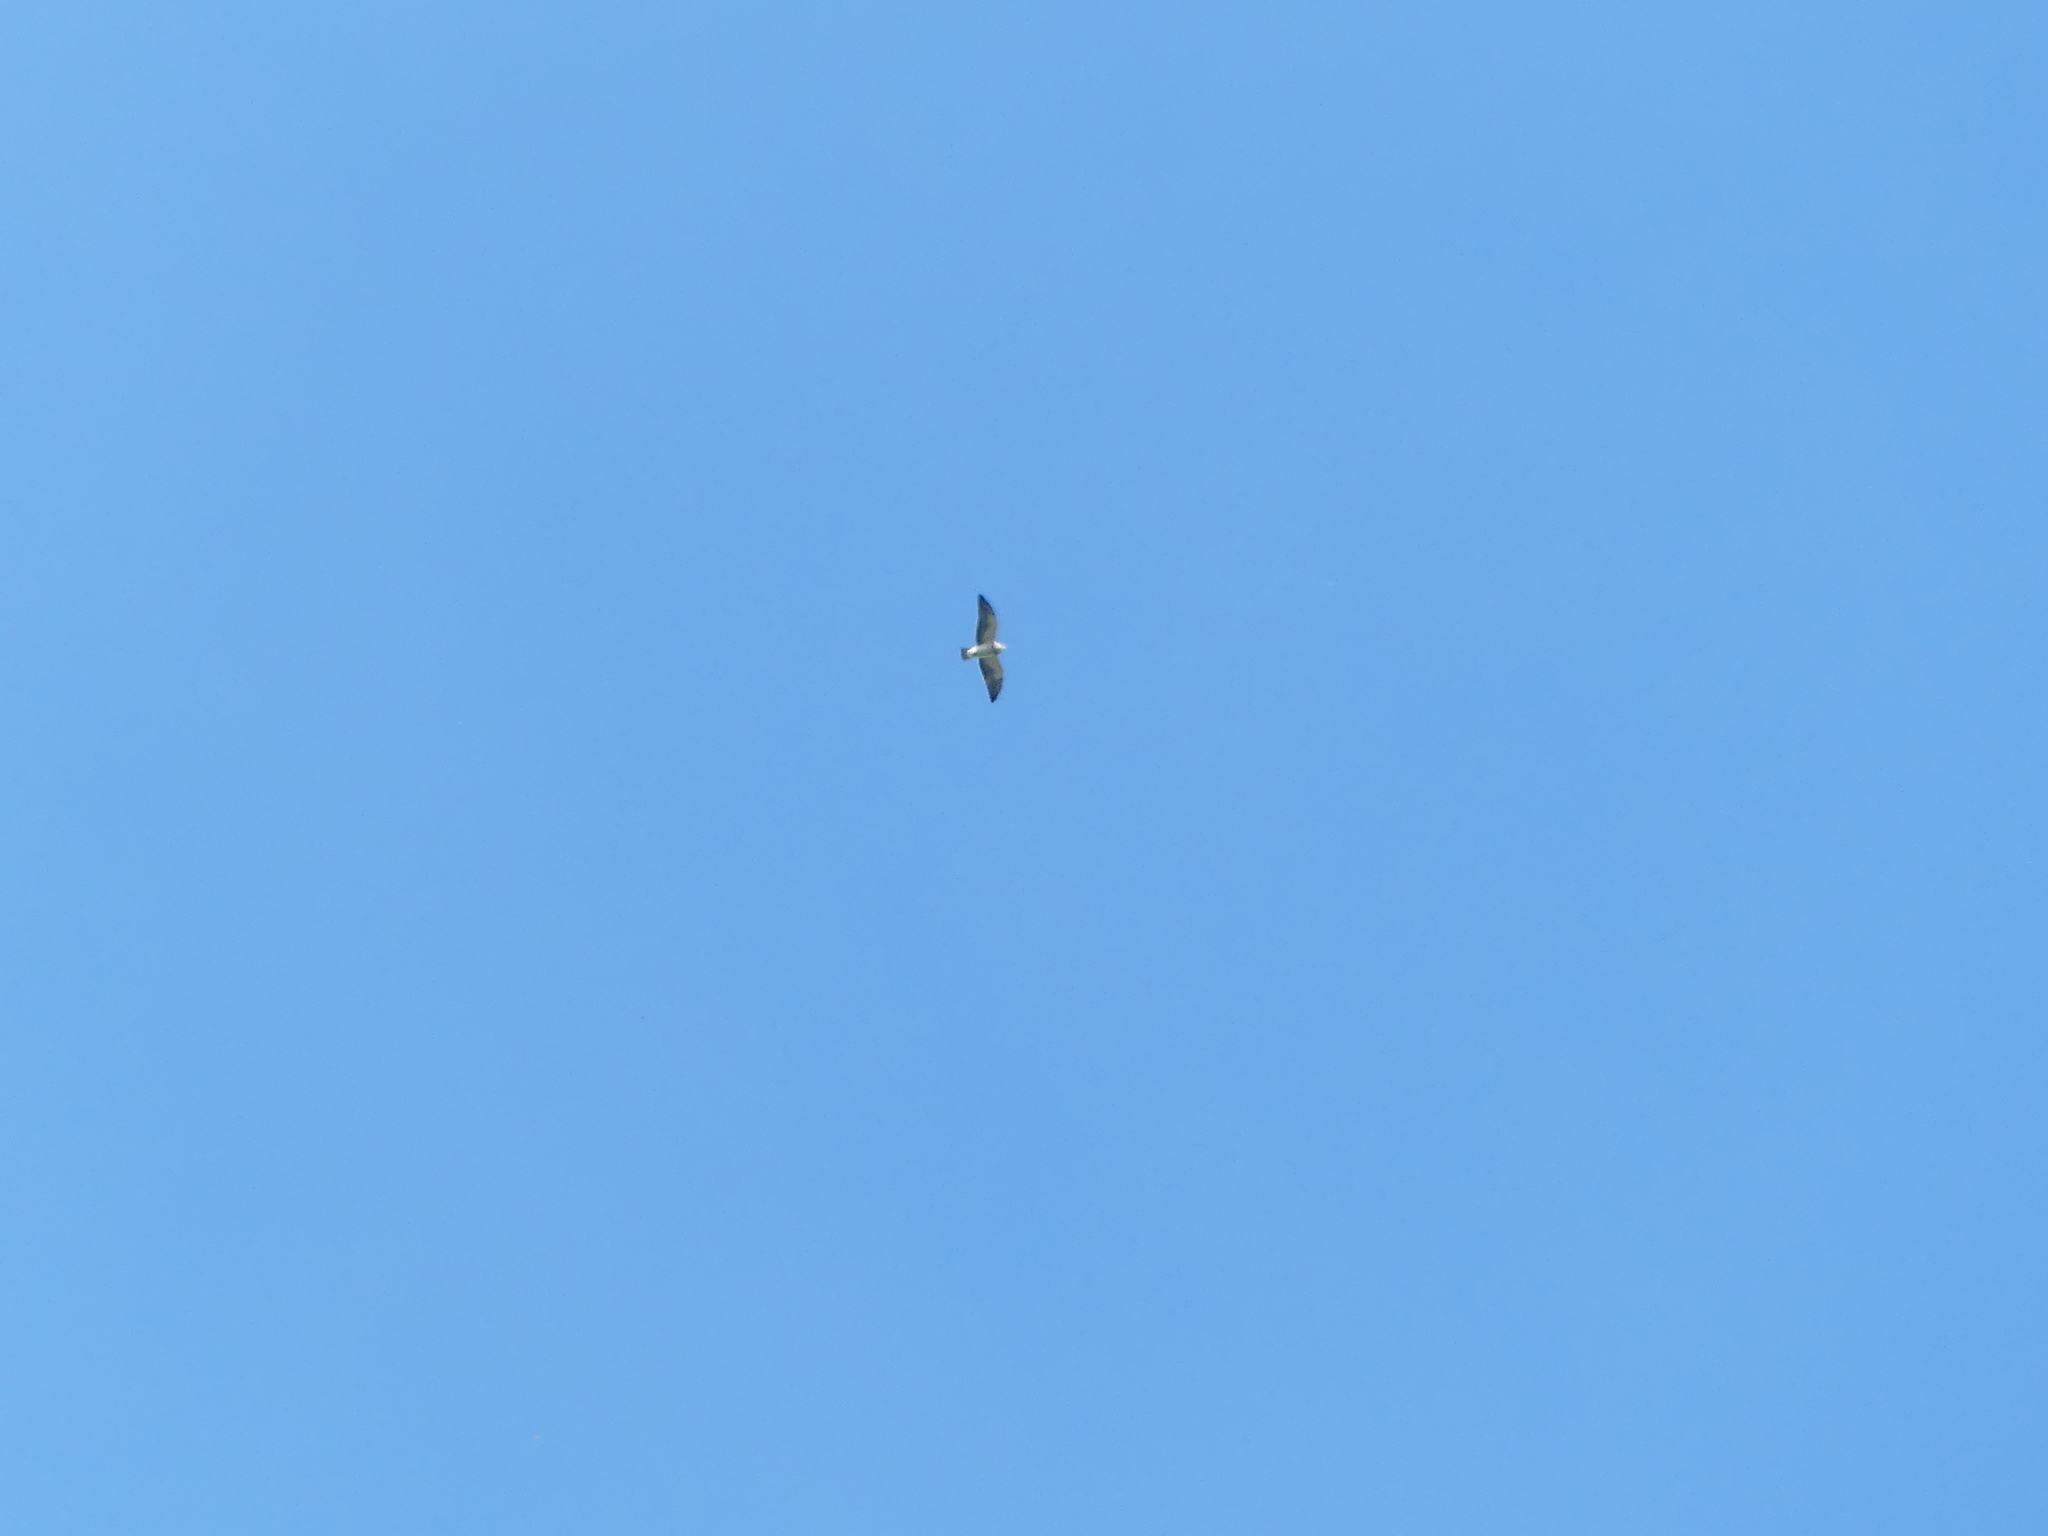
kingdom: Animalia
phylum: Chordata
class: Aves
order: Accipitriformes
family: Accipitridae
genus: Buteo
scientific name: Buteo swainsoni
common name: Swainson's hawk
